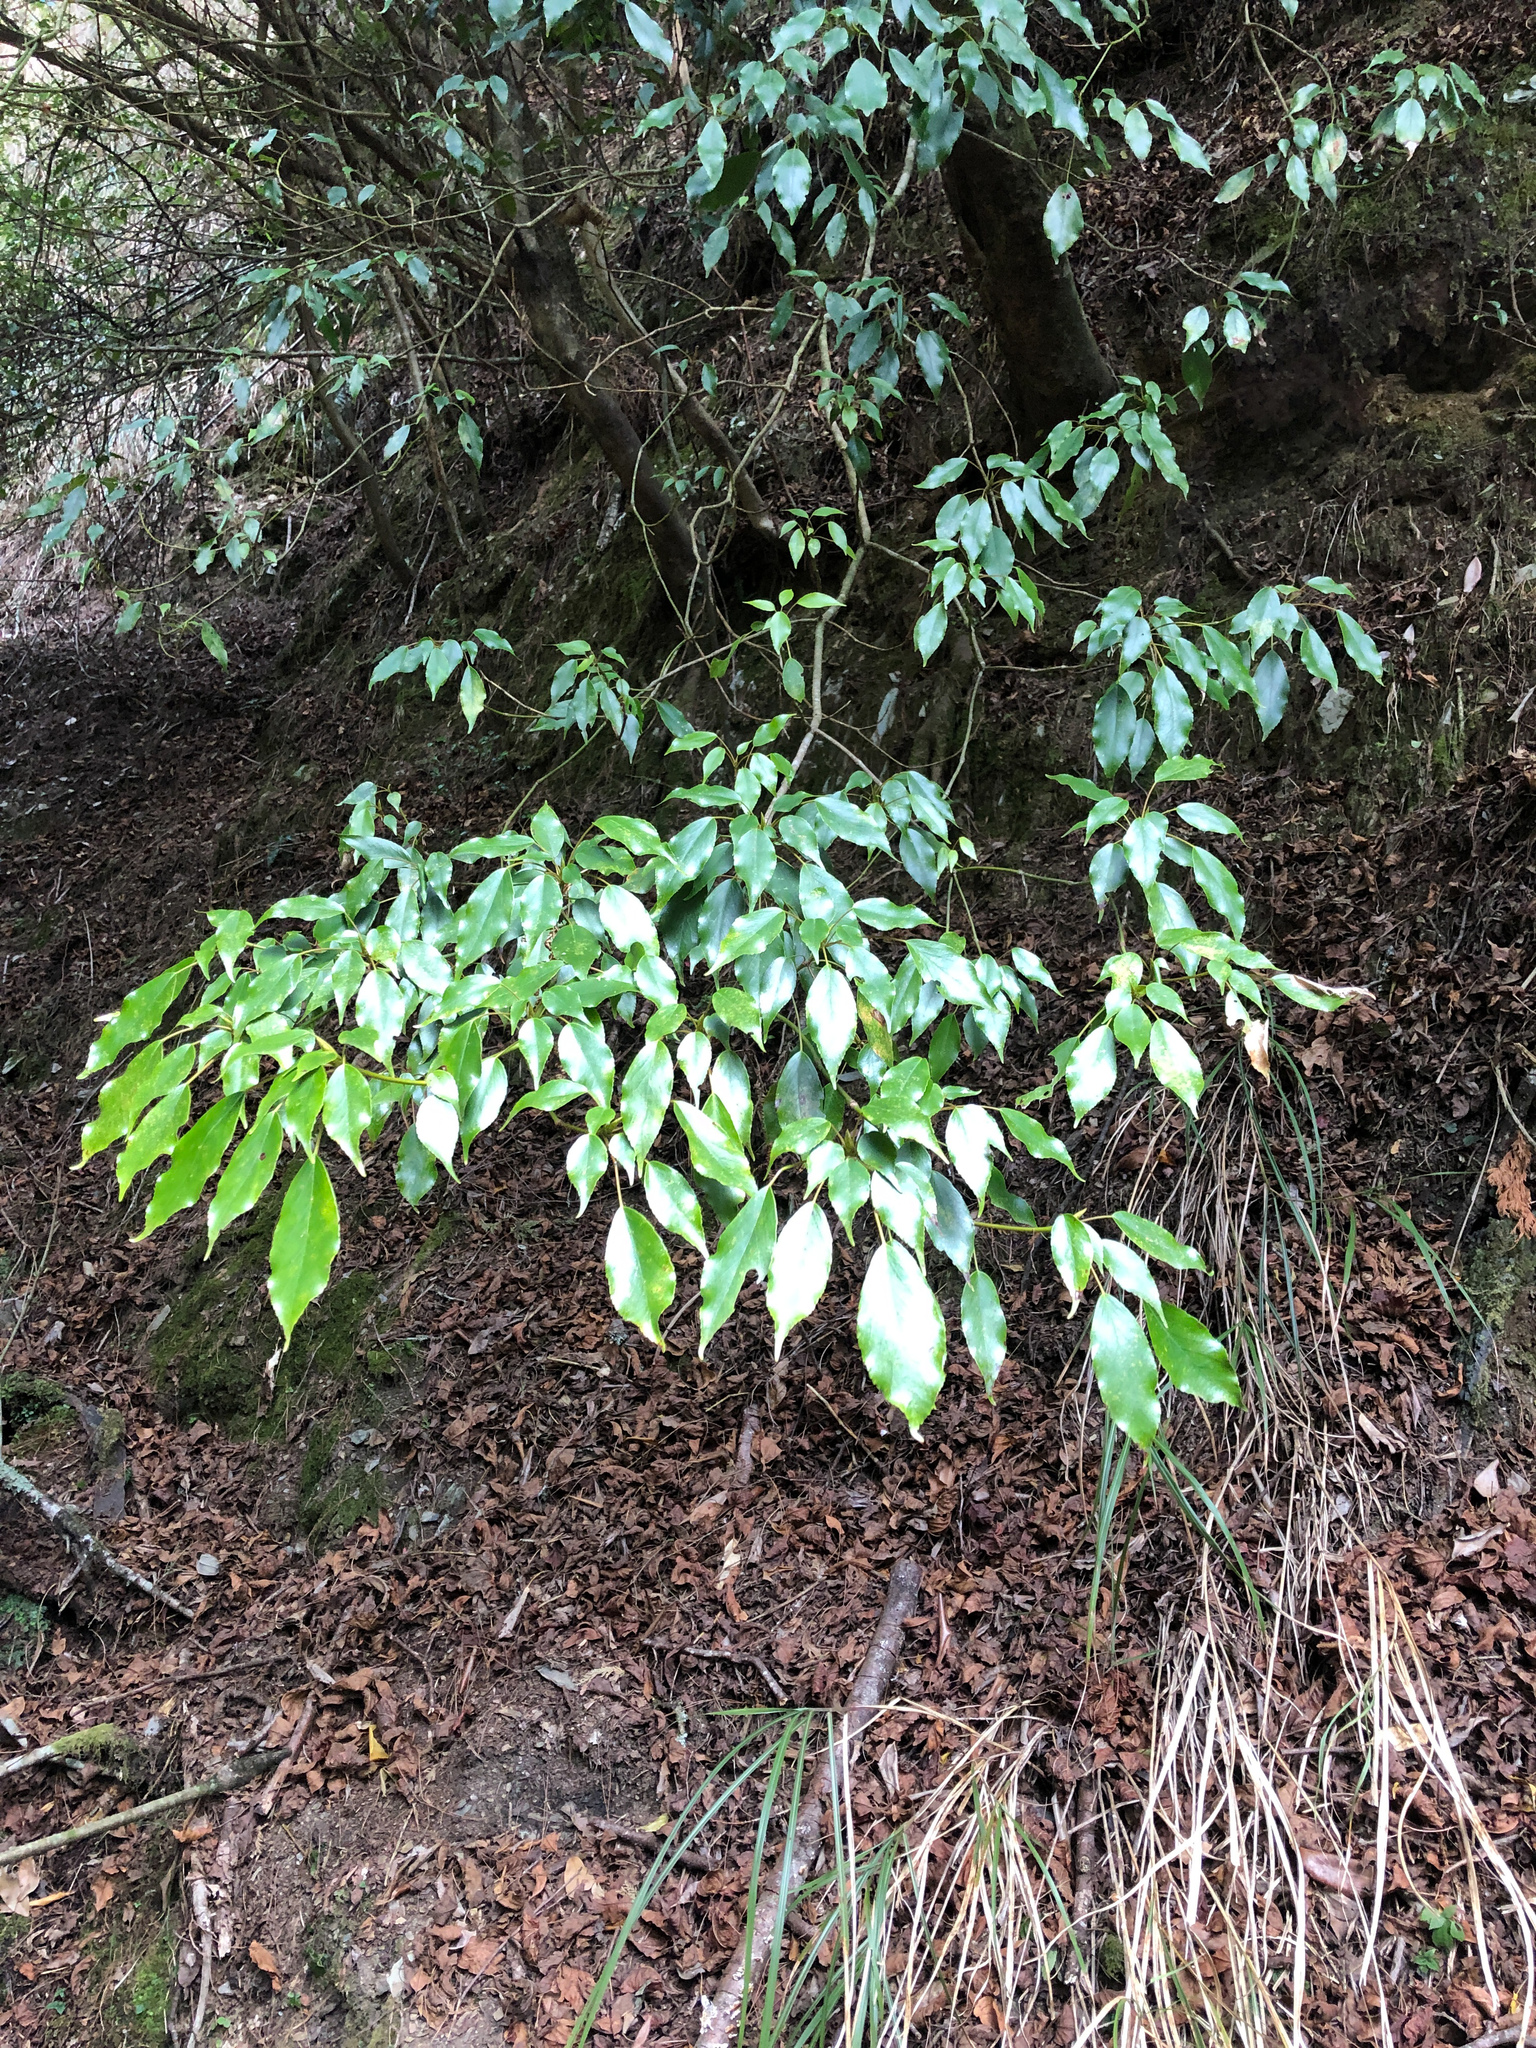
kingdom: Plantae
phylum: Tracheophyta
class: Magnoliopsida
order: Trochodendrales
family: Trochodendraceae
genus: Trochodendron
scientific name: Trochodendron aralioides
